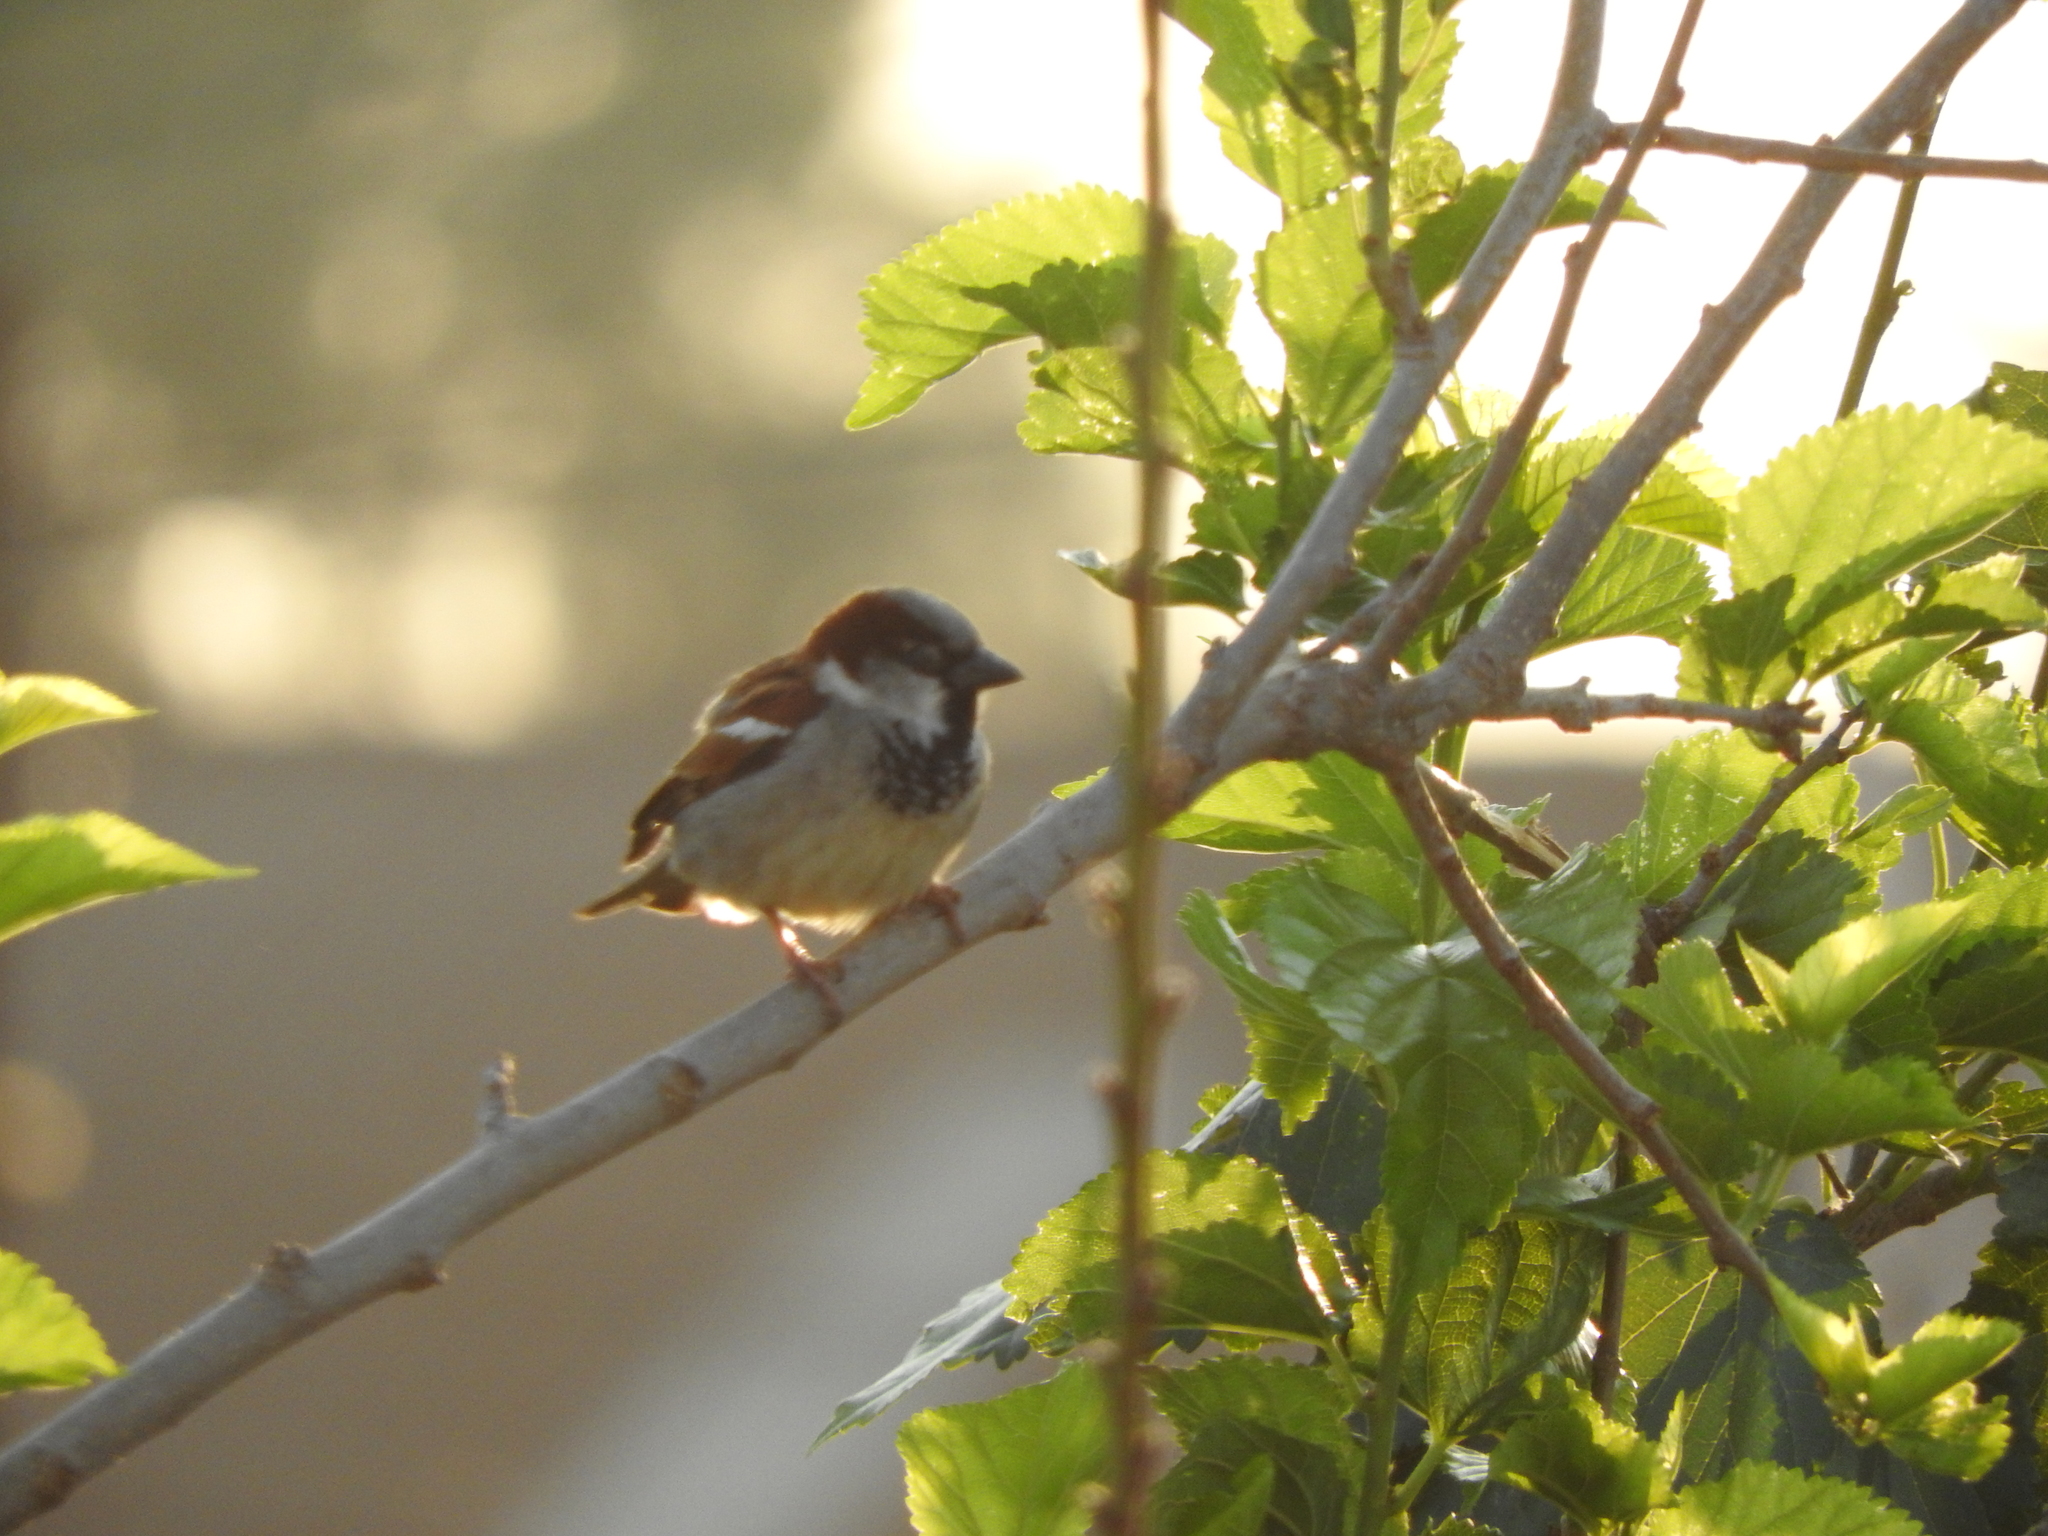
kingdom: Animalia
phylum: Chordata
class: Aves
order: Passeriformes
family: Passeridae
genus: Passer
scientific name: Passer domesticus
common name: House sparrow
